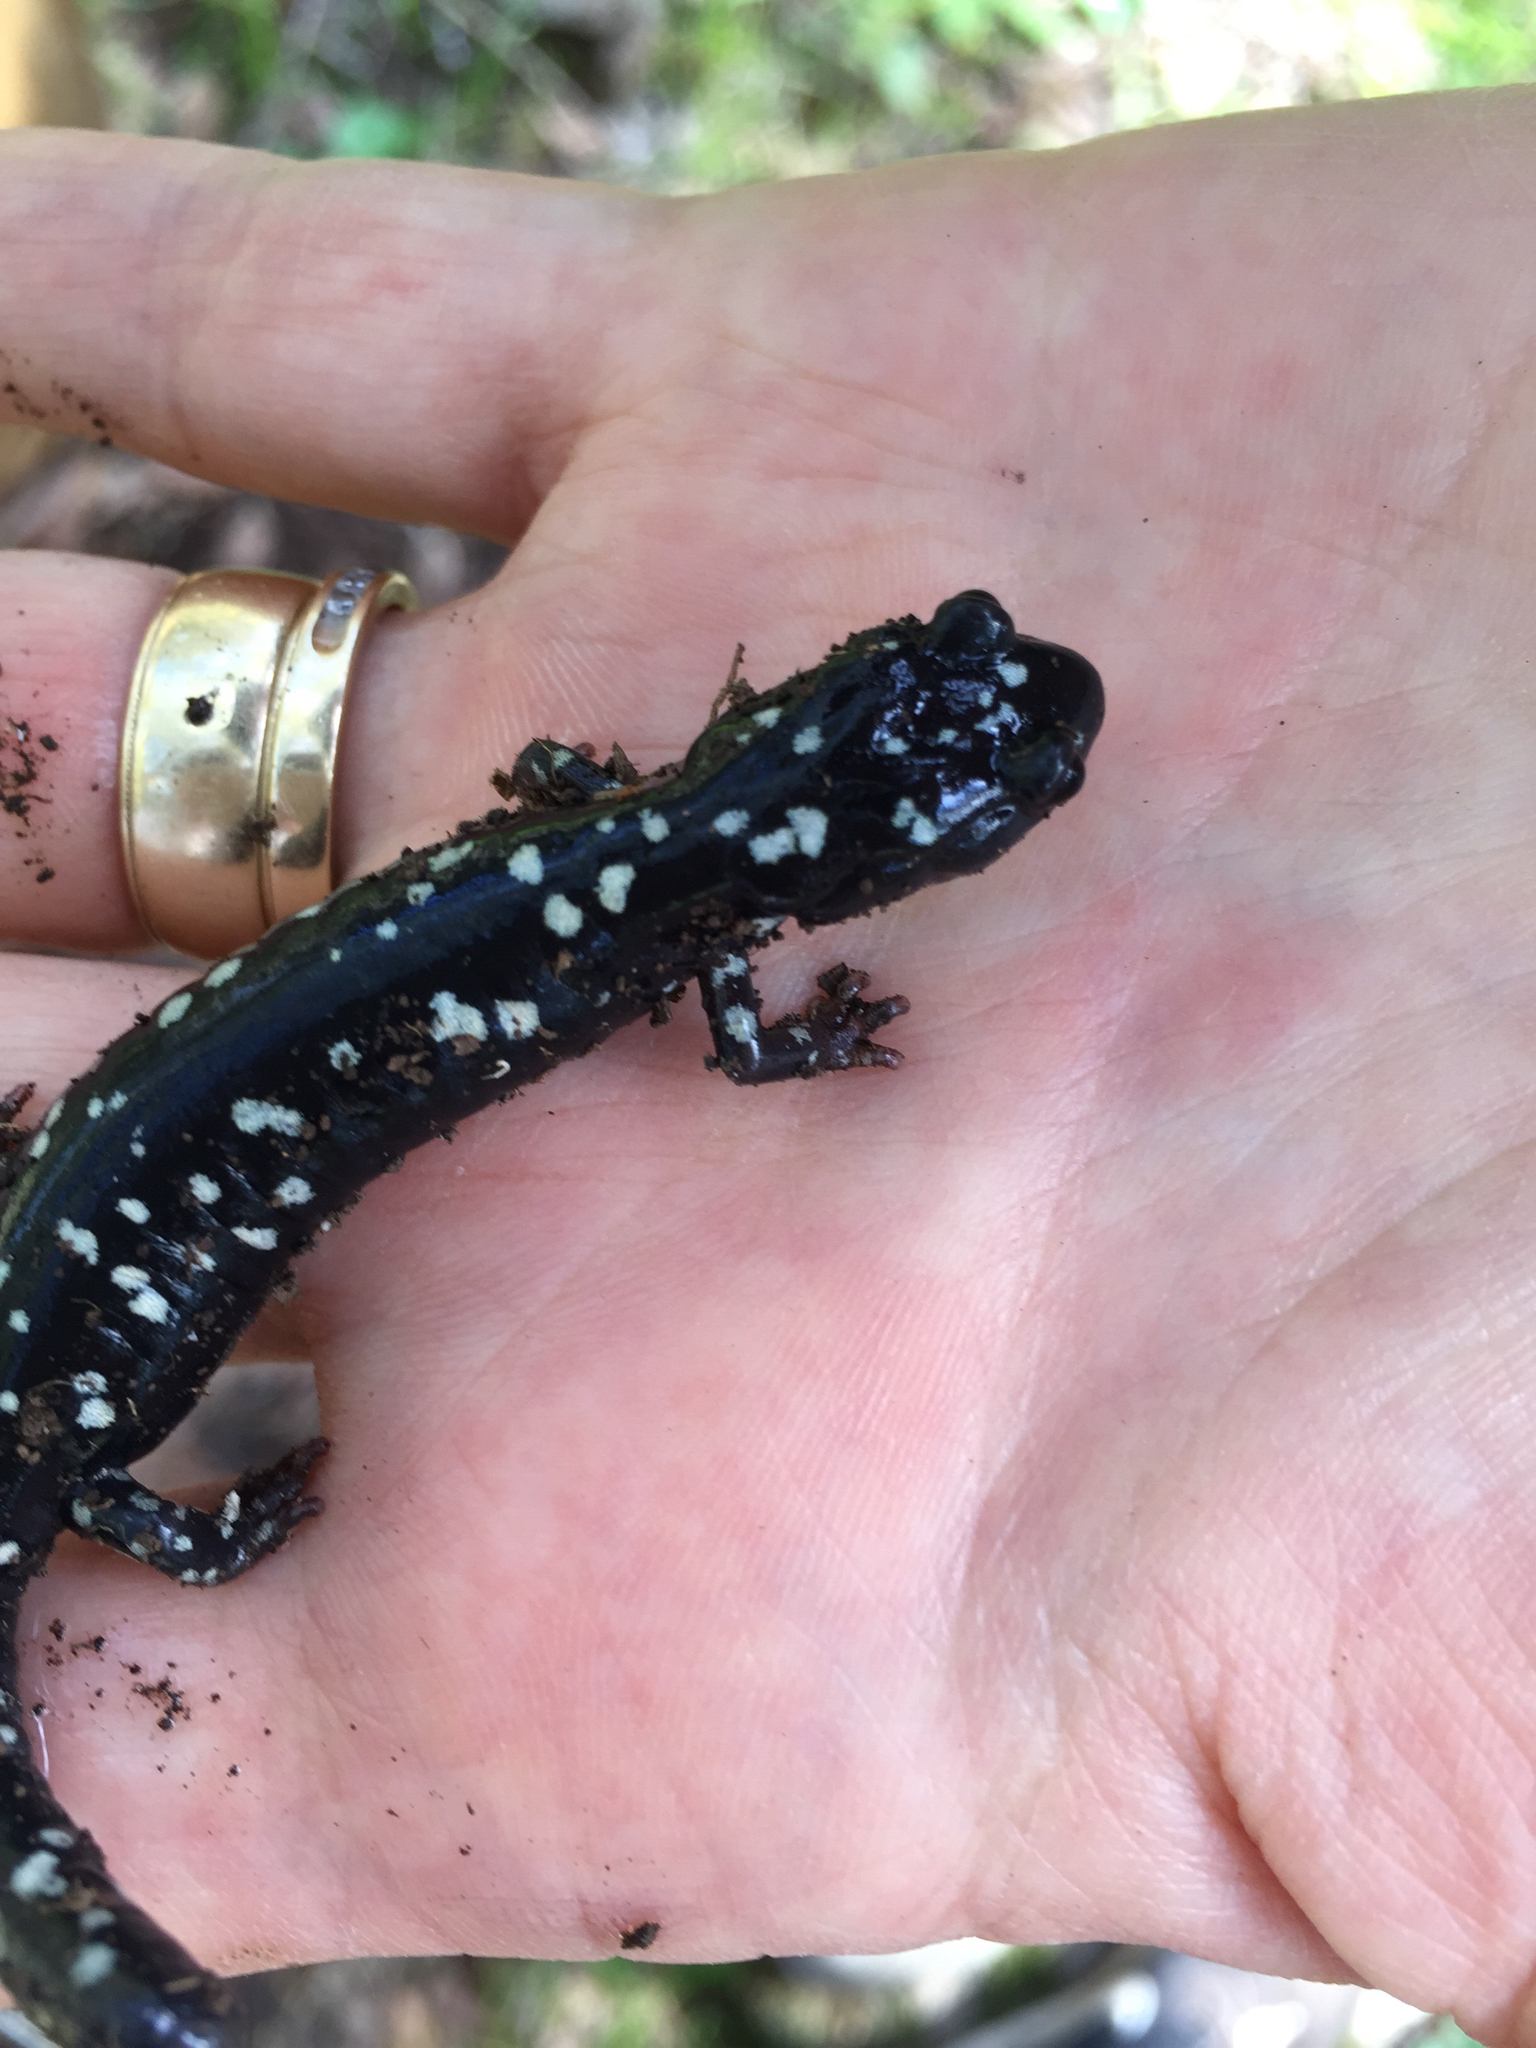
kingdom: Animalia
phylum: Chordata
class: Amphibia
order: Caudata
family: Plethodontidae
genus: Aneides
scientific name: Aneides flavipunctatus
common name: Black salamander
